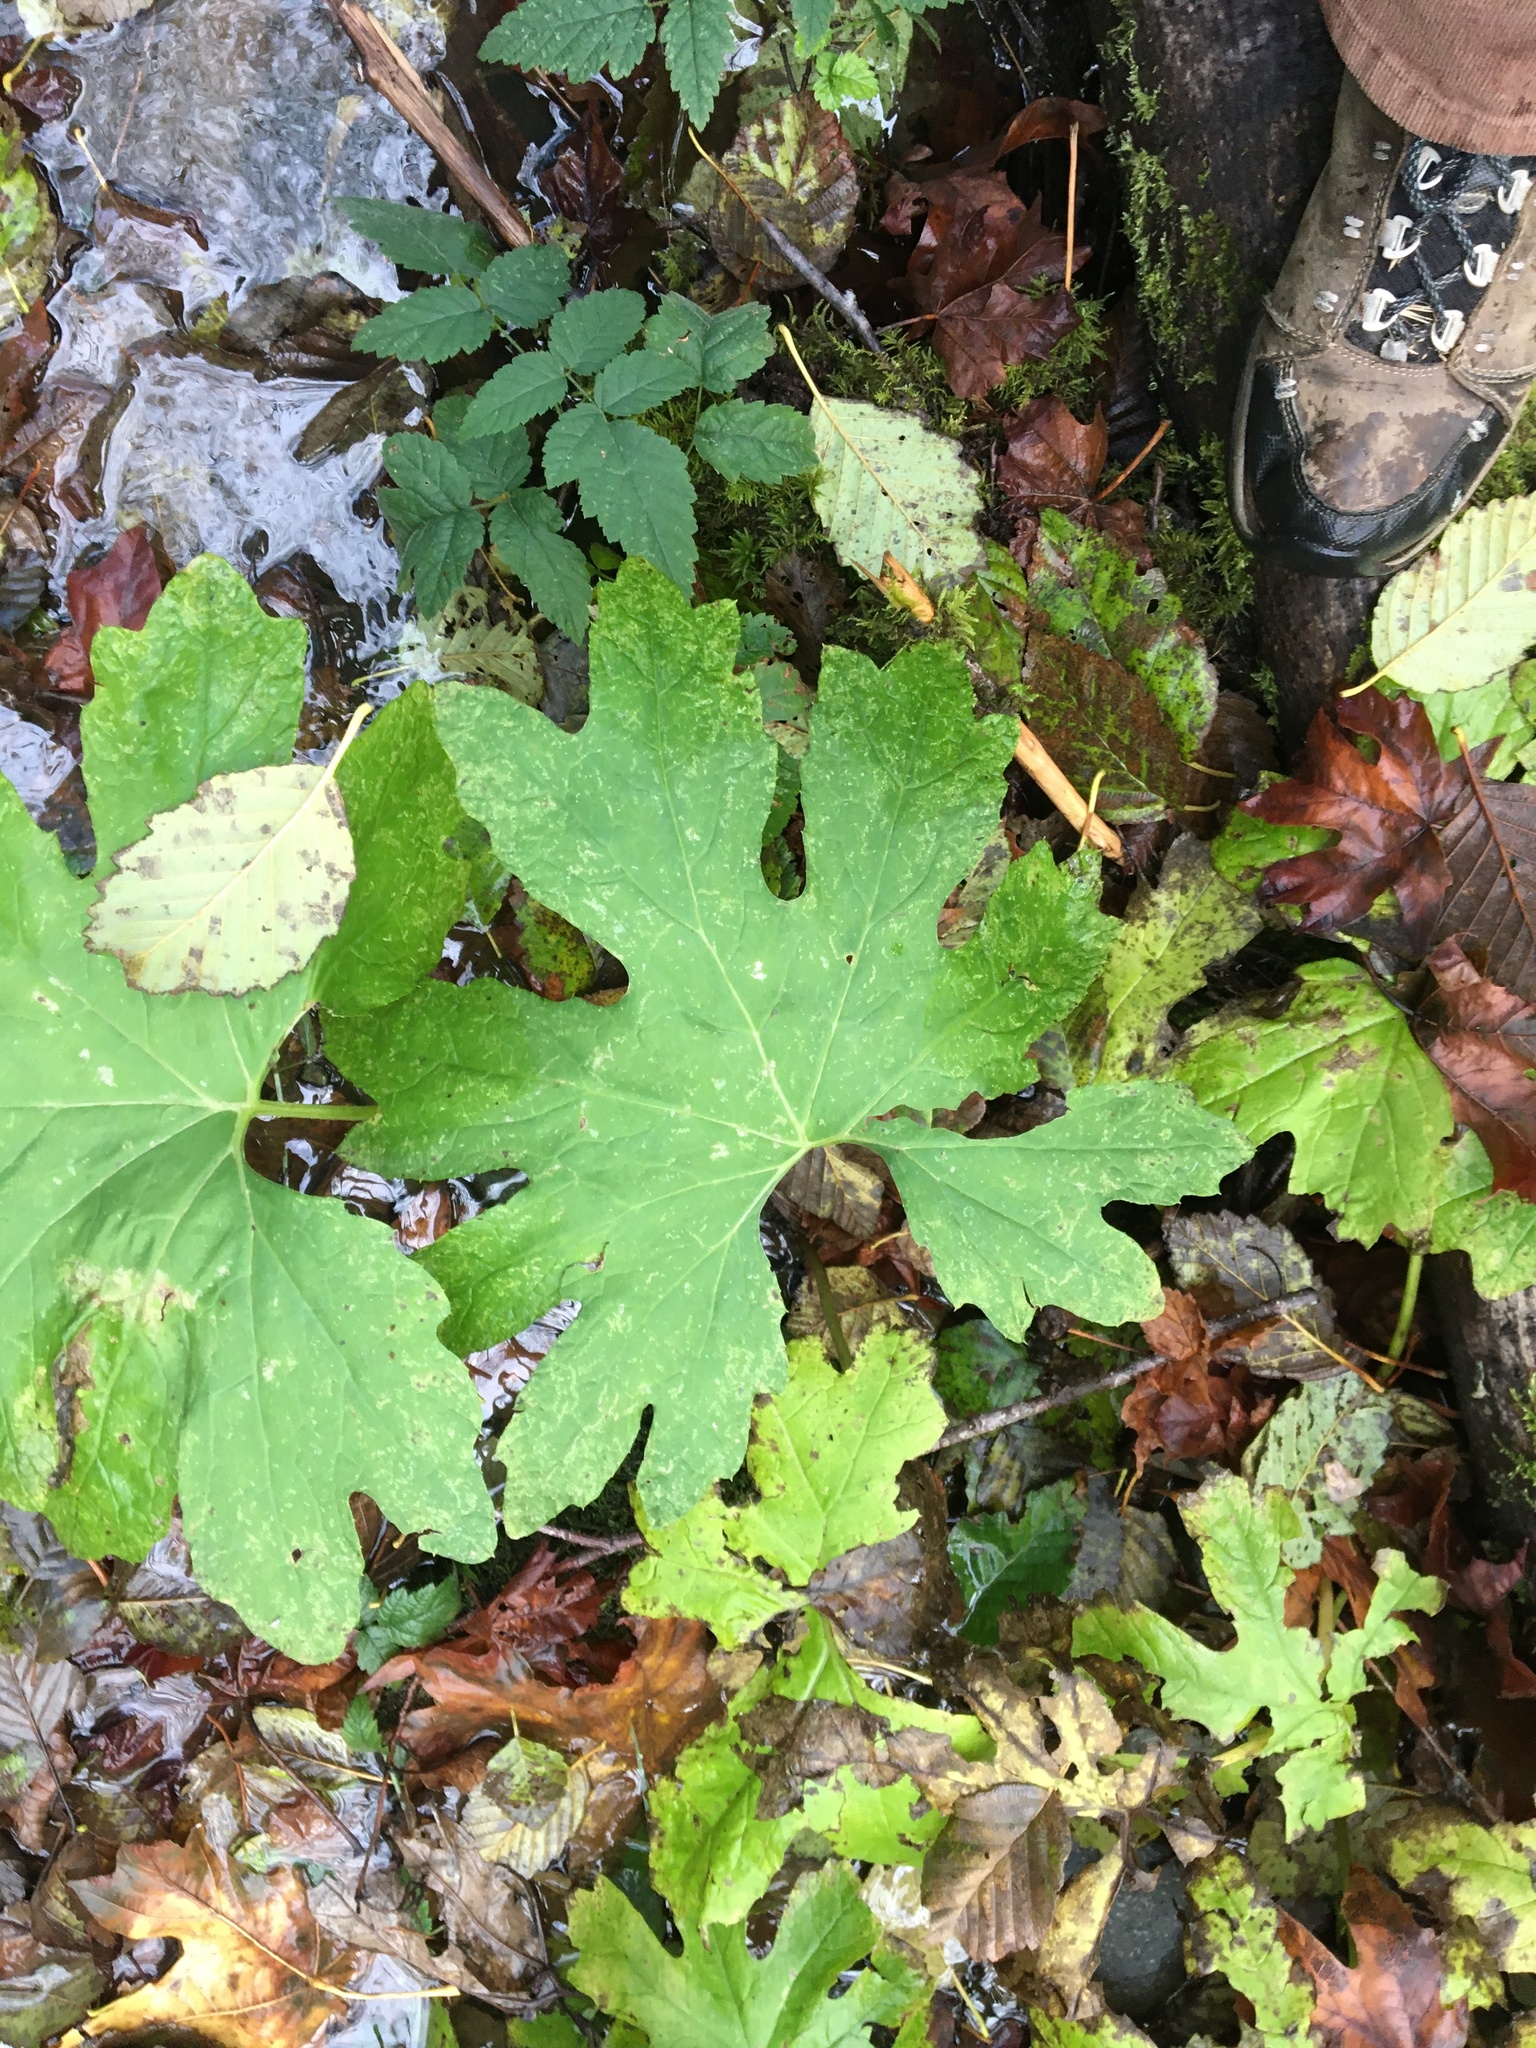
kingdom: Plantae
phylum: Tracheophyta
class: Magnoliopsida
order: Asterales
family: Asteraceae
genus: Petasites
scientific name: Petasites frigidus
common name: Arctic butterbur
